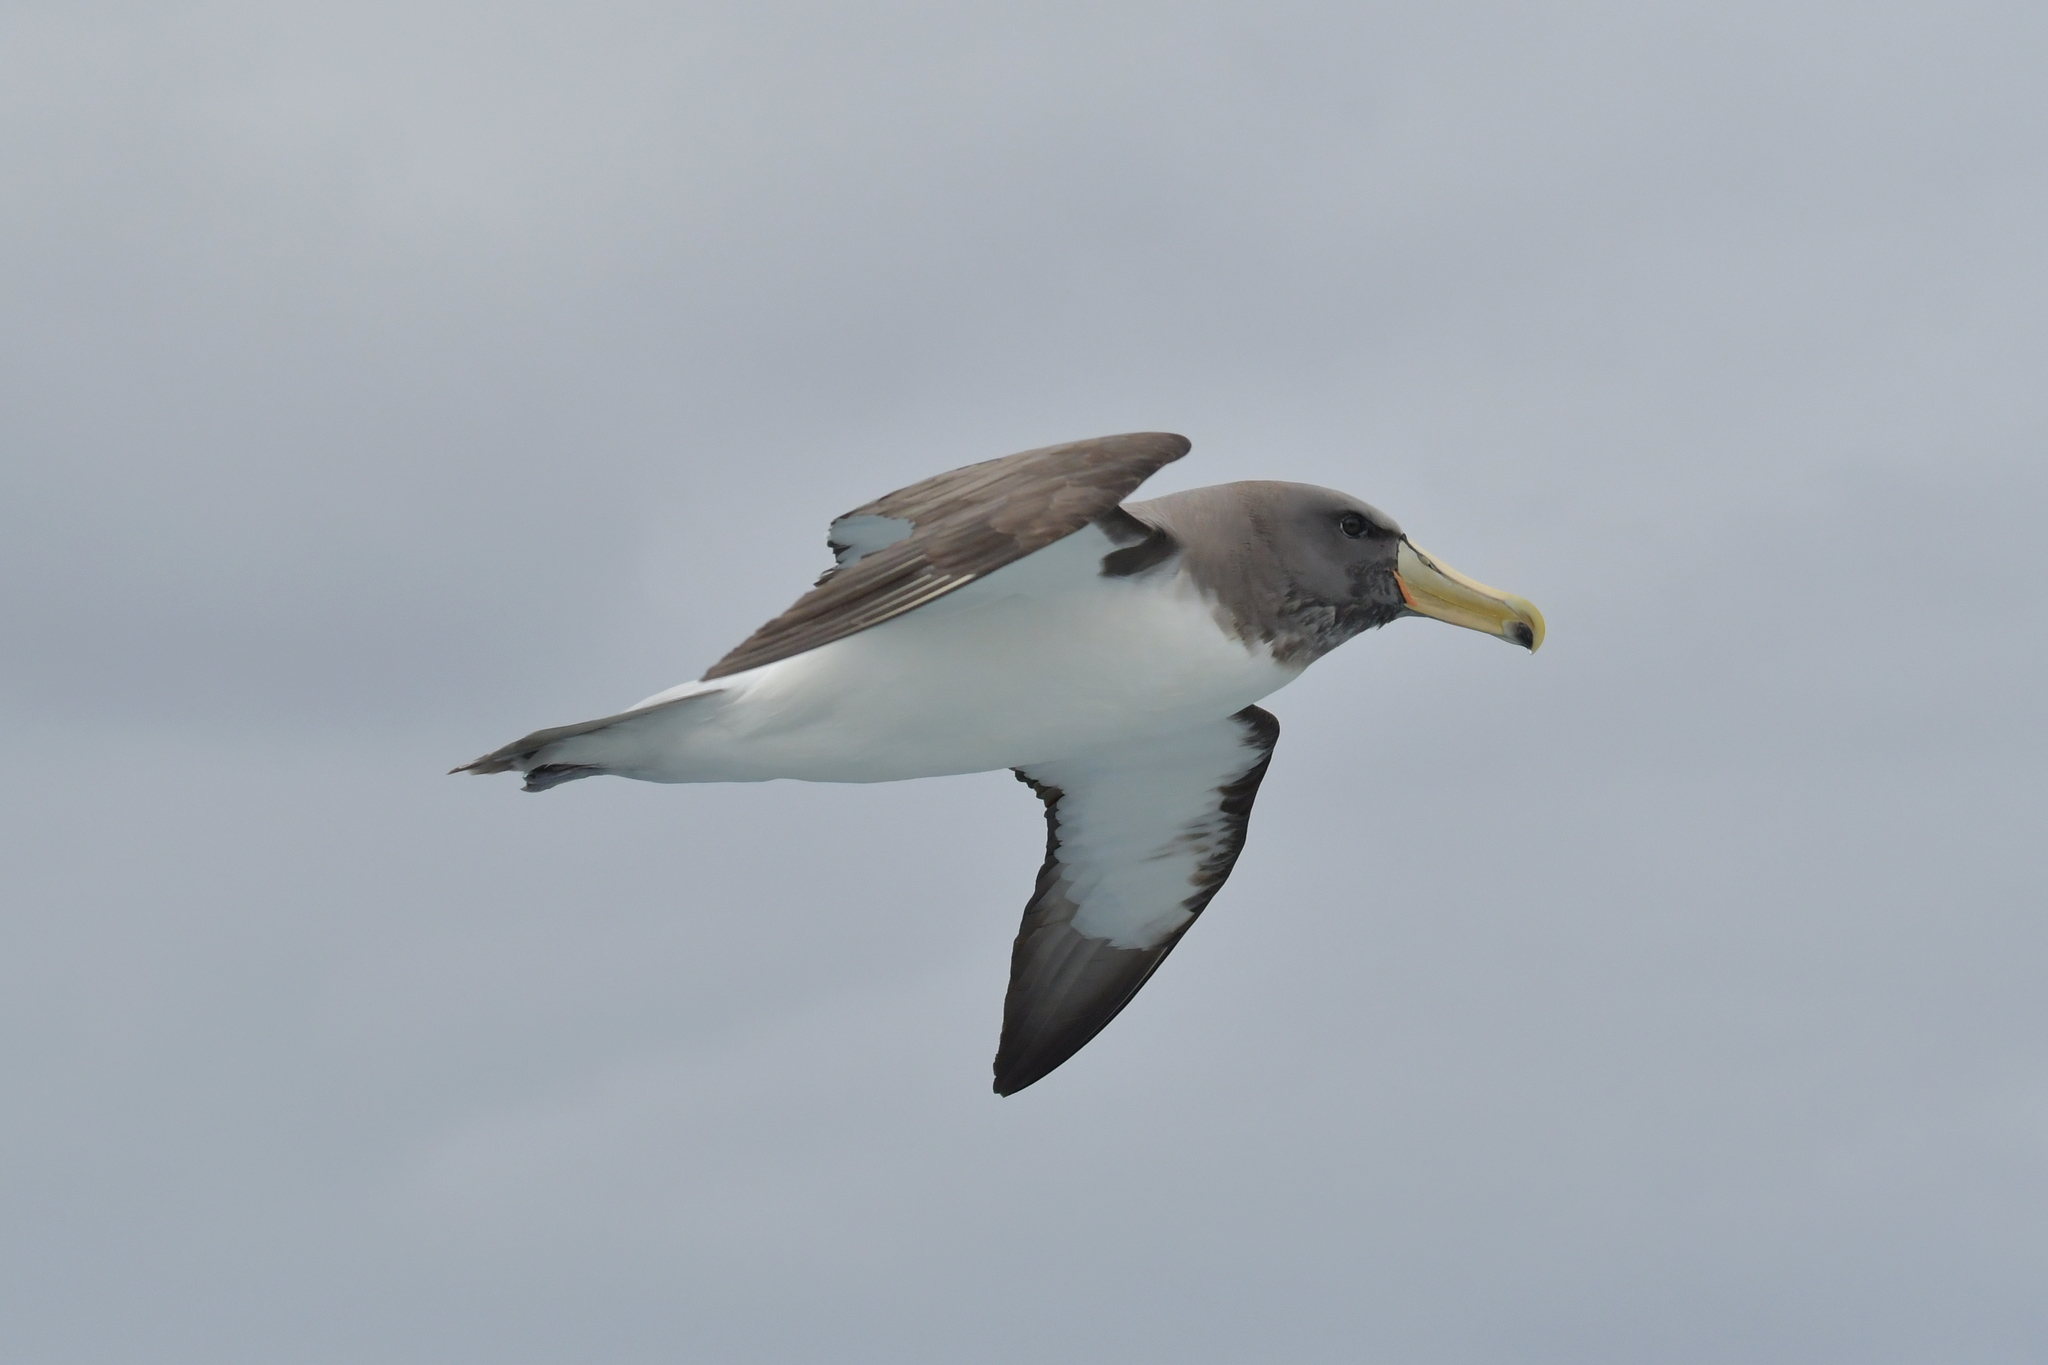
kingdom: Animalia
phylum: Chordata
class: Aves
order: Procellariiformes
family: Diomedeidae
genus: Thalassarche
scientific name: Thalassarche eremita
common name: Chatham albatross
